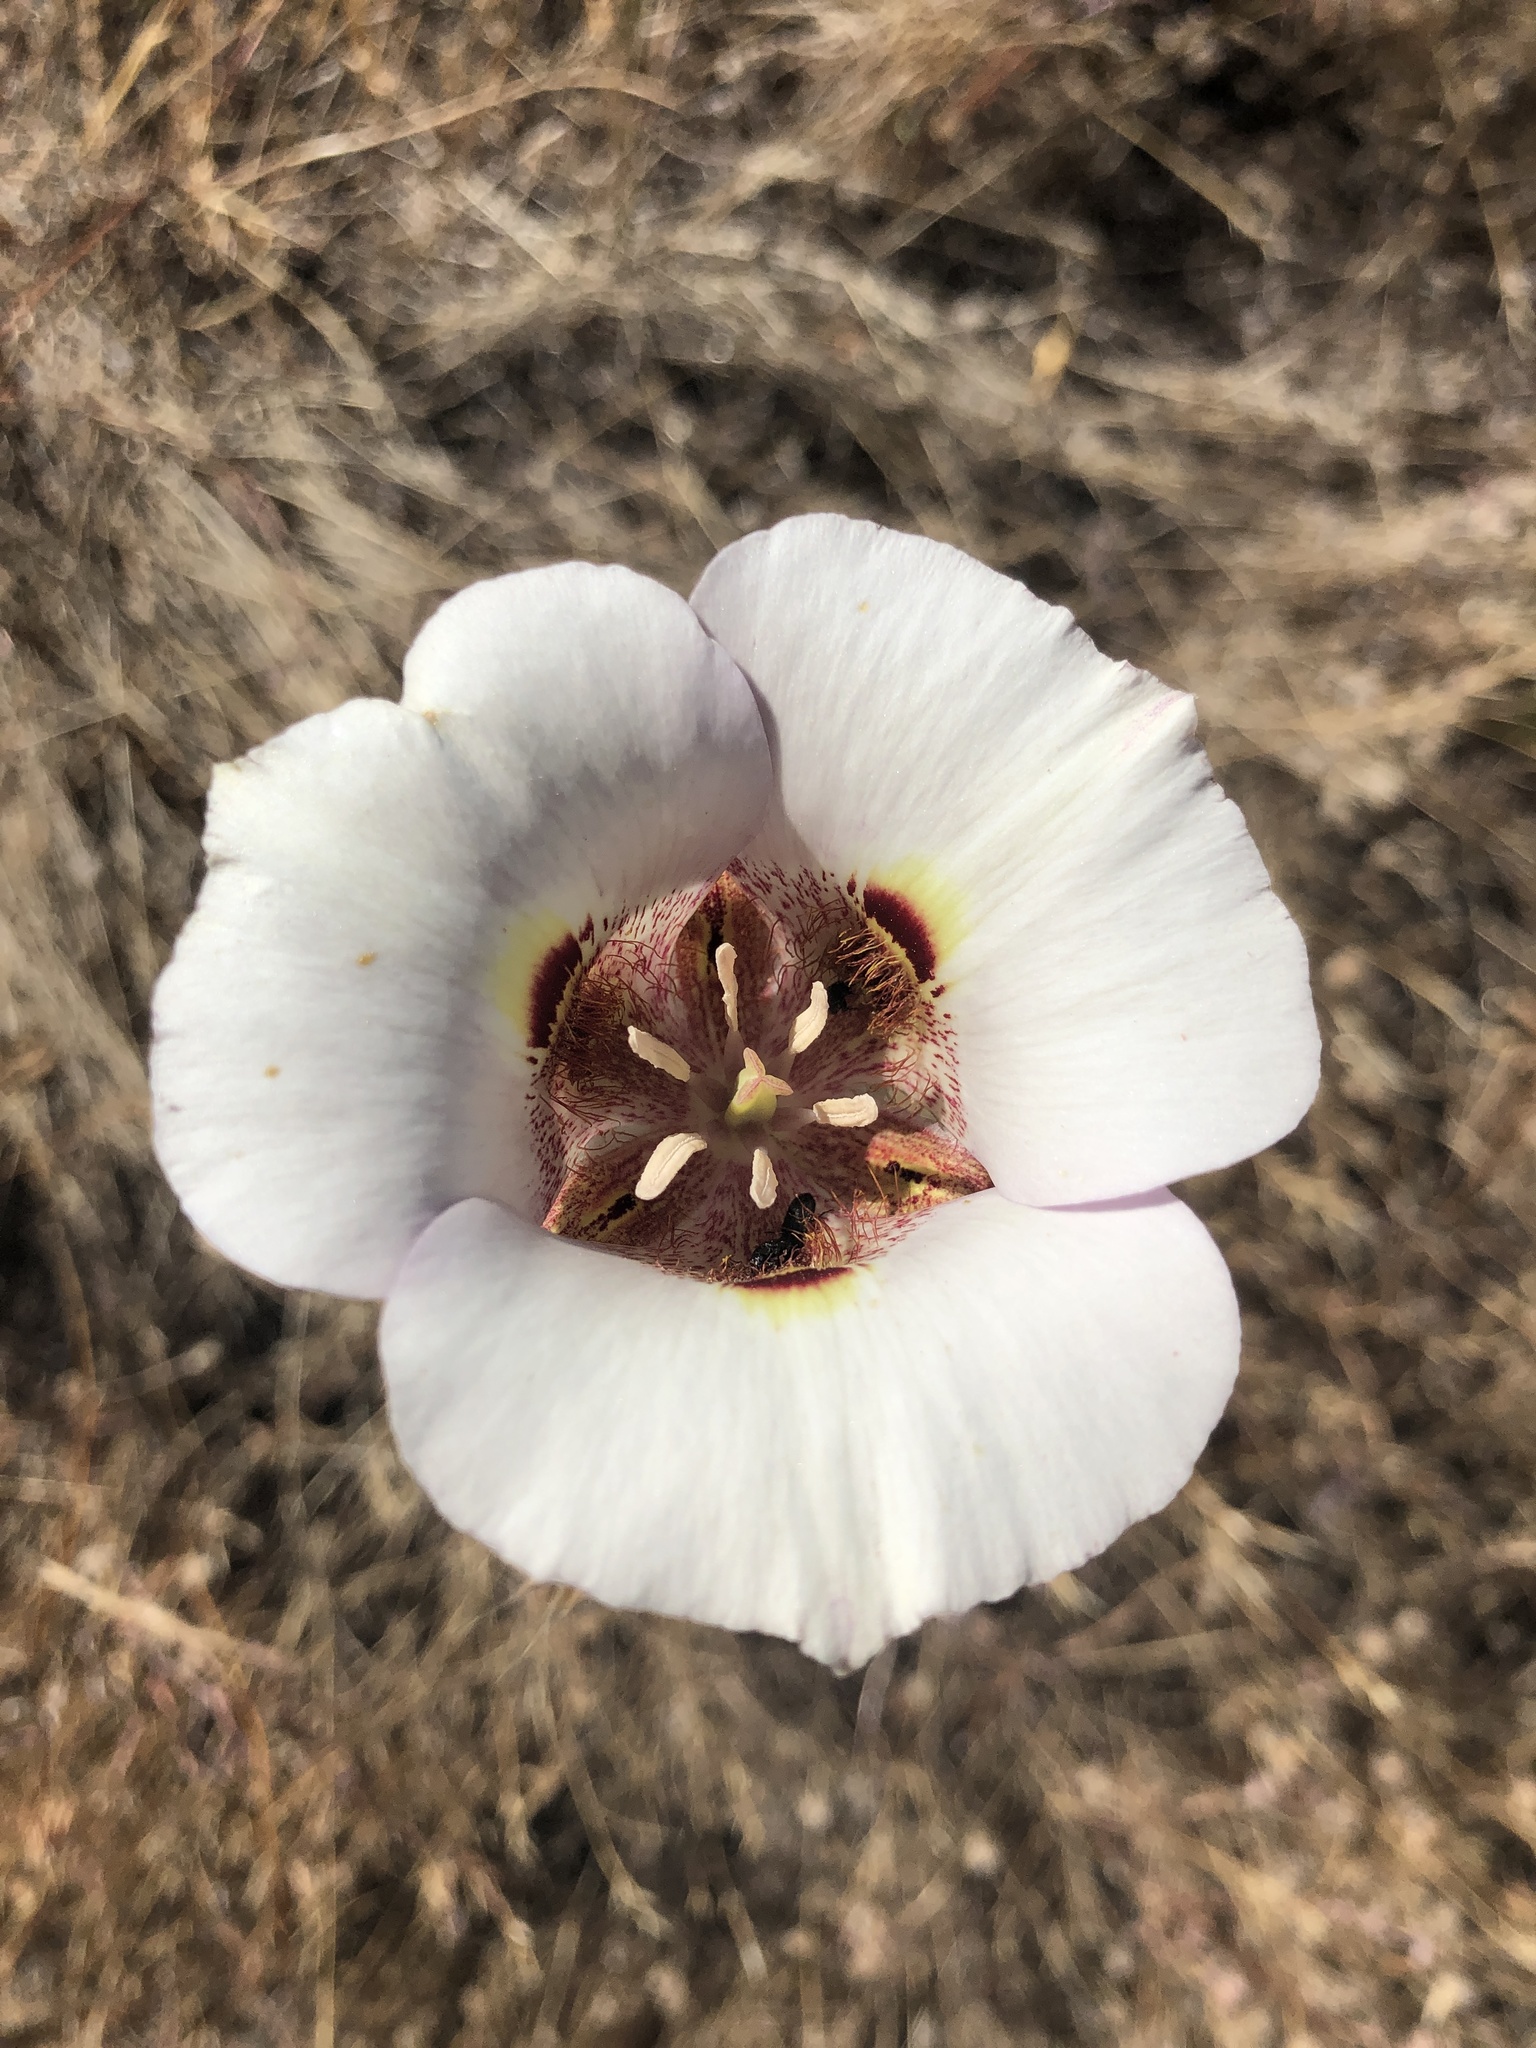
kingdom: Plantae
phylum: Tracheophyta
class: Liliopsida
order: Liliales
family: Liliaceae
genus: Calochortus
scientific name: Calochortus argillosus
